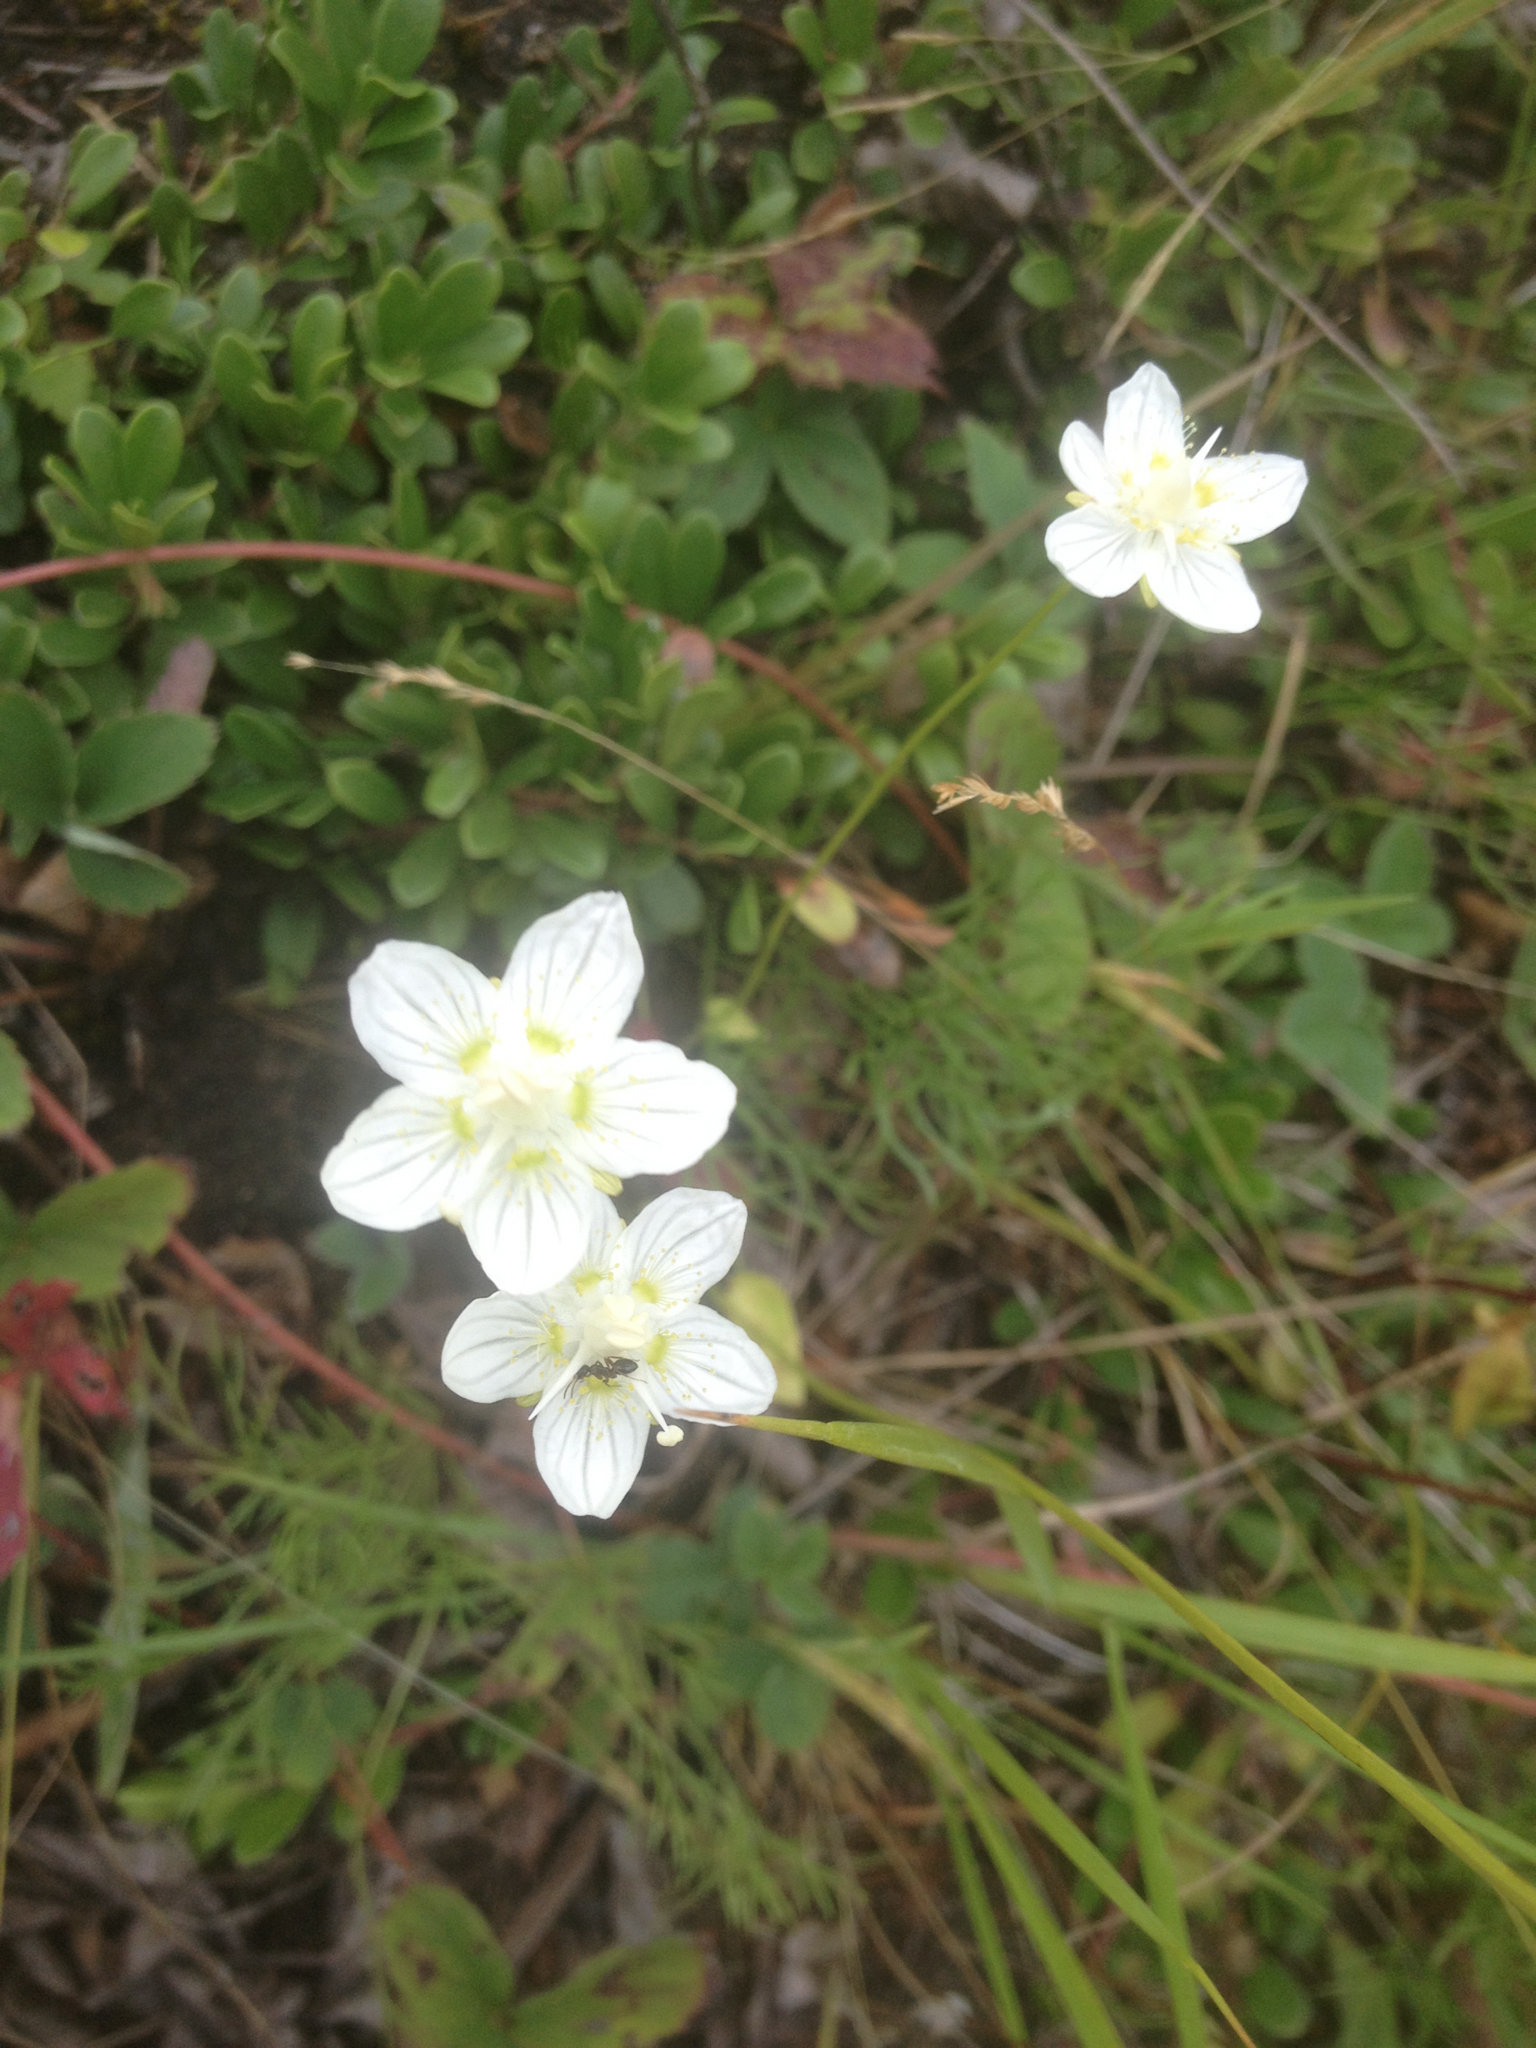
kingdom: Plantae
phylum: Tracheophyta
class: Magnoliopsida
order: Celastrales
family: Parnassiaceae
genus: Parnassia
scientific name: Parnassia palustris
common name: Grass-of-parnassus
